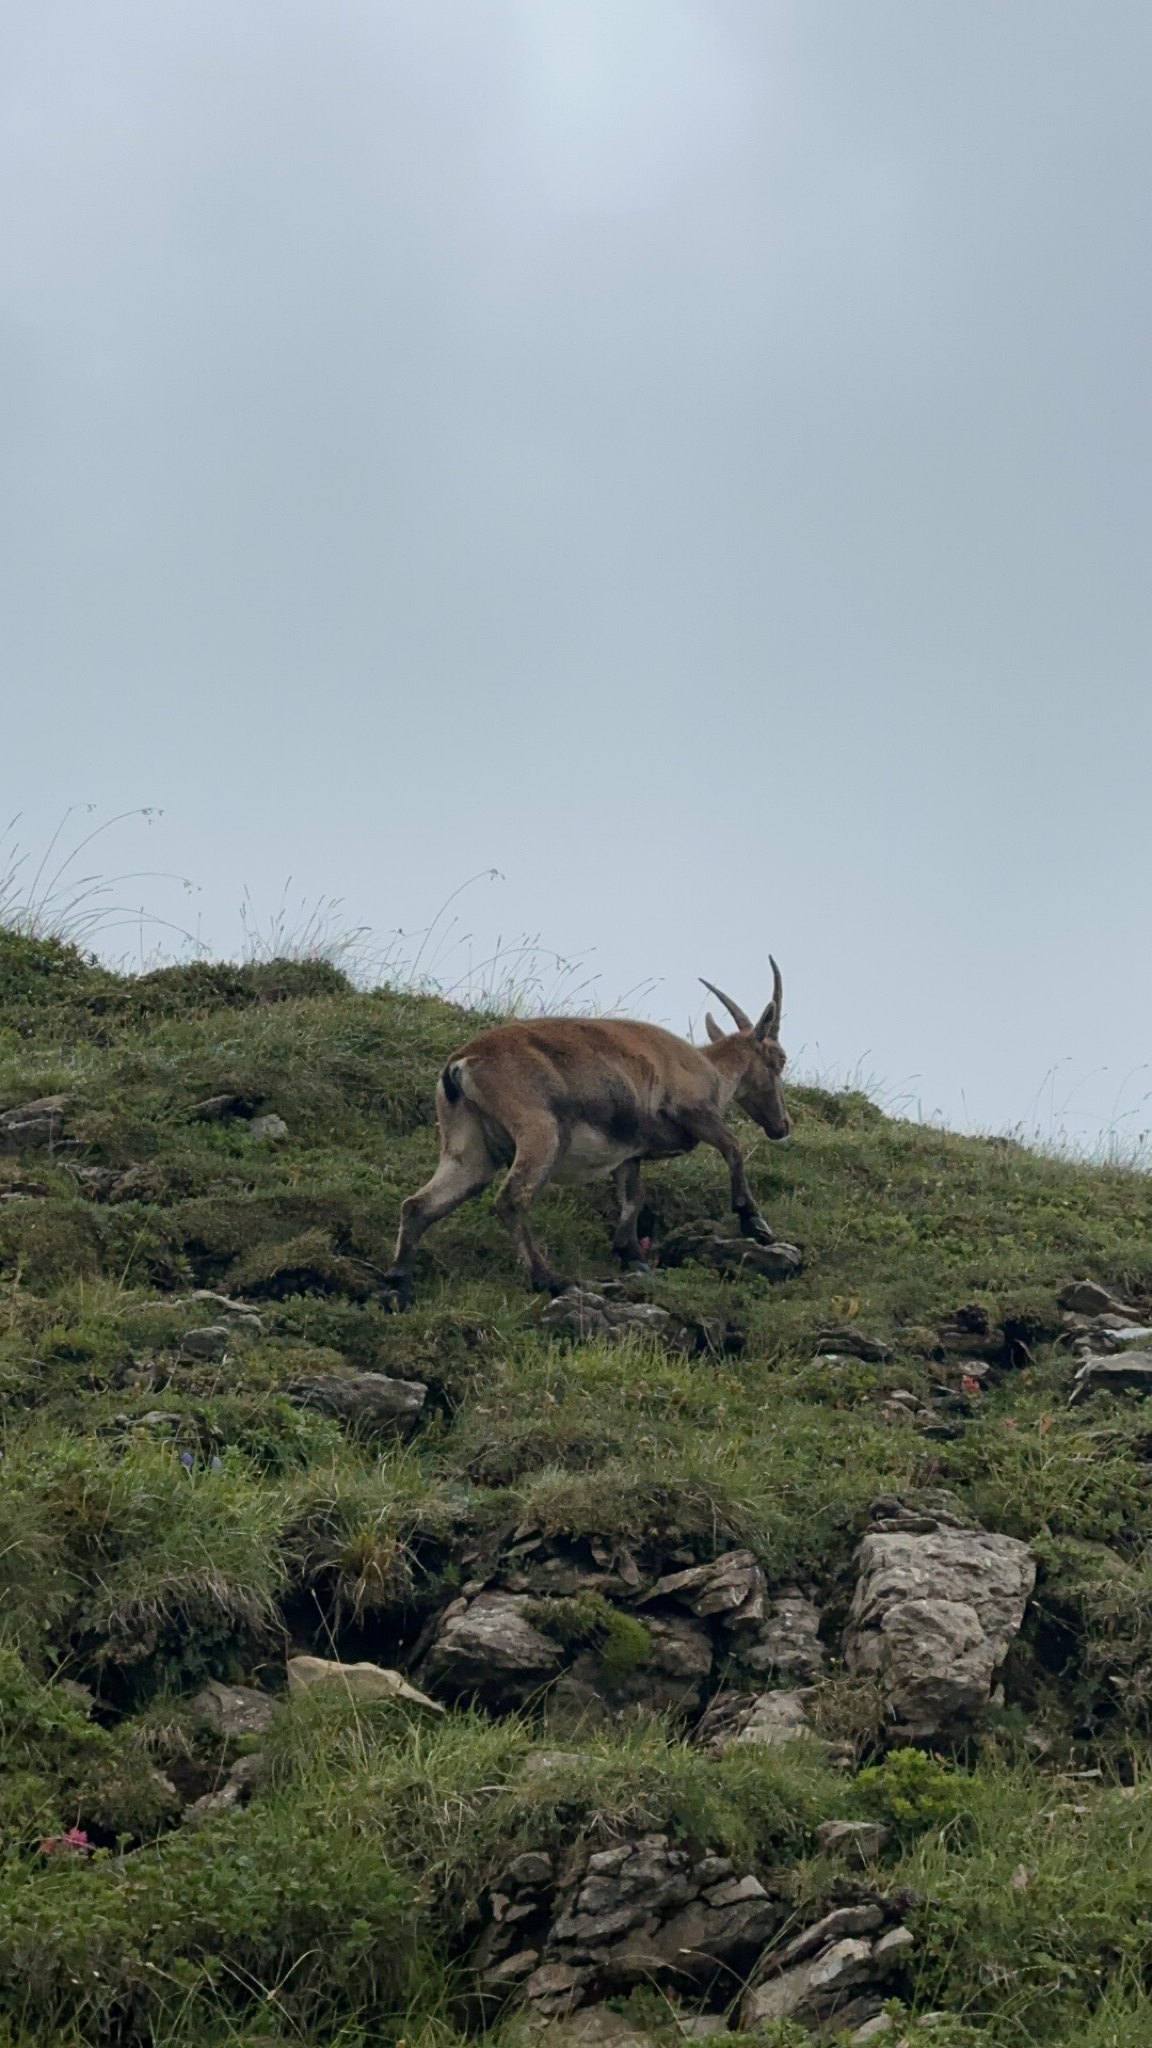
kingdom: Animalia
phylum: Chordata
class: Mammalia
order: Artiodactyla
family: Bovidae
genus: Capra
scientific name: Capra ibex
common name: Alpine ibex
